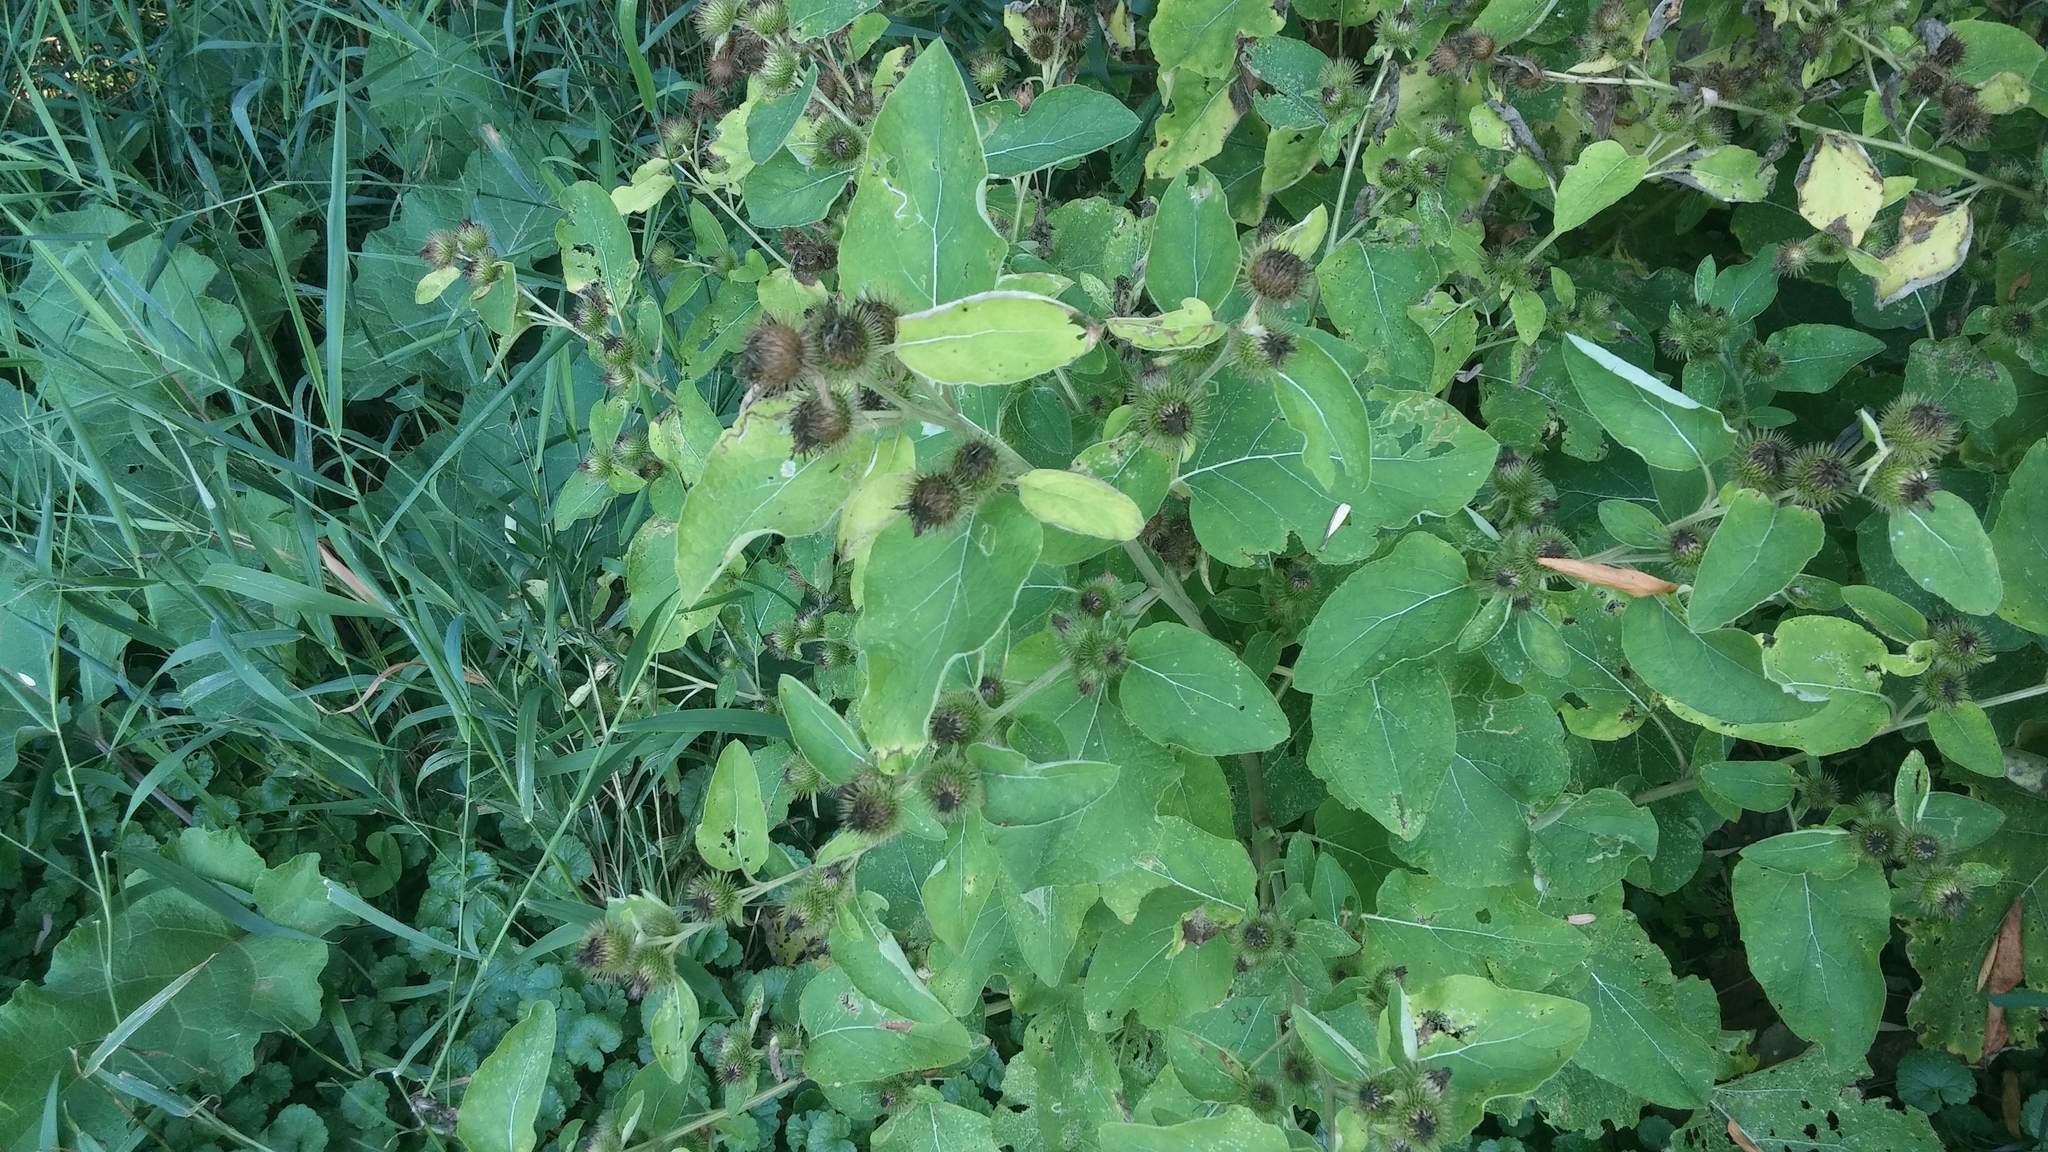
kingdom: Plantae
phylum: Tracheophyta
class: Magnoliopsida
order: Asterales
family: Asteraceae
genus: Arctium
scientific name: Arctium minus
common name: Lesser burdock
